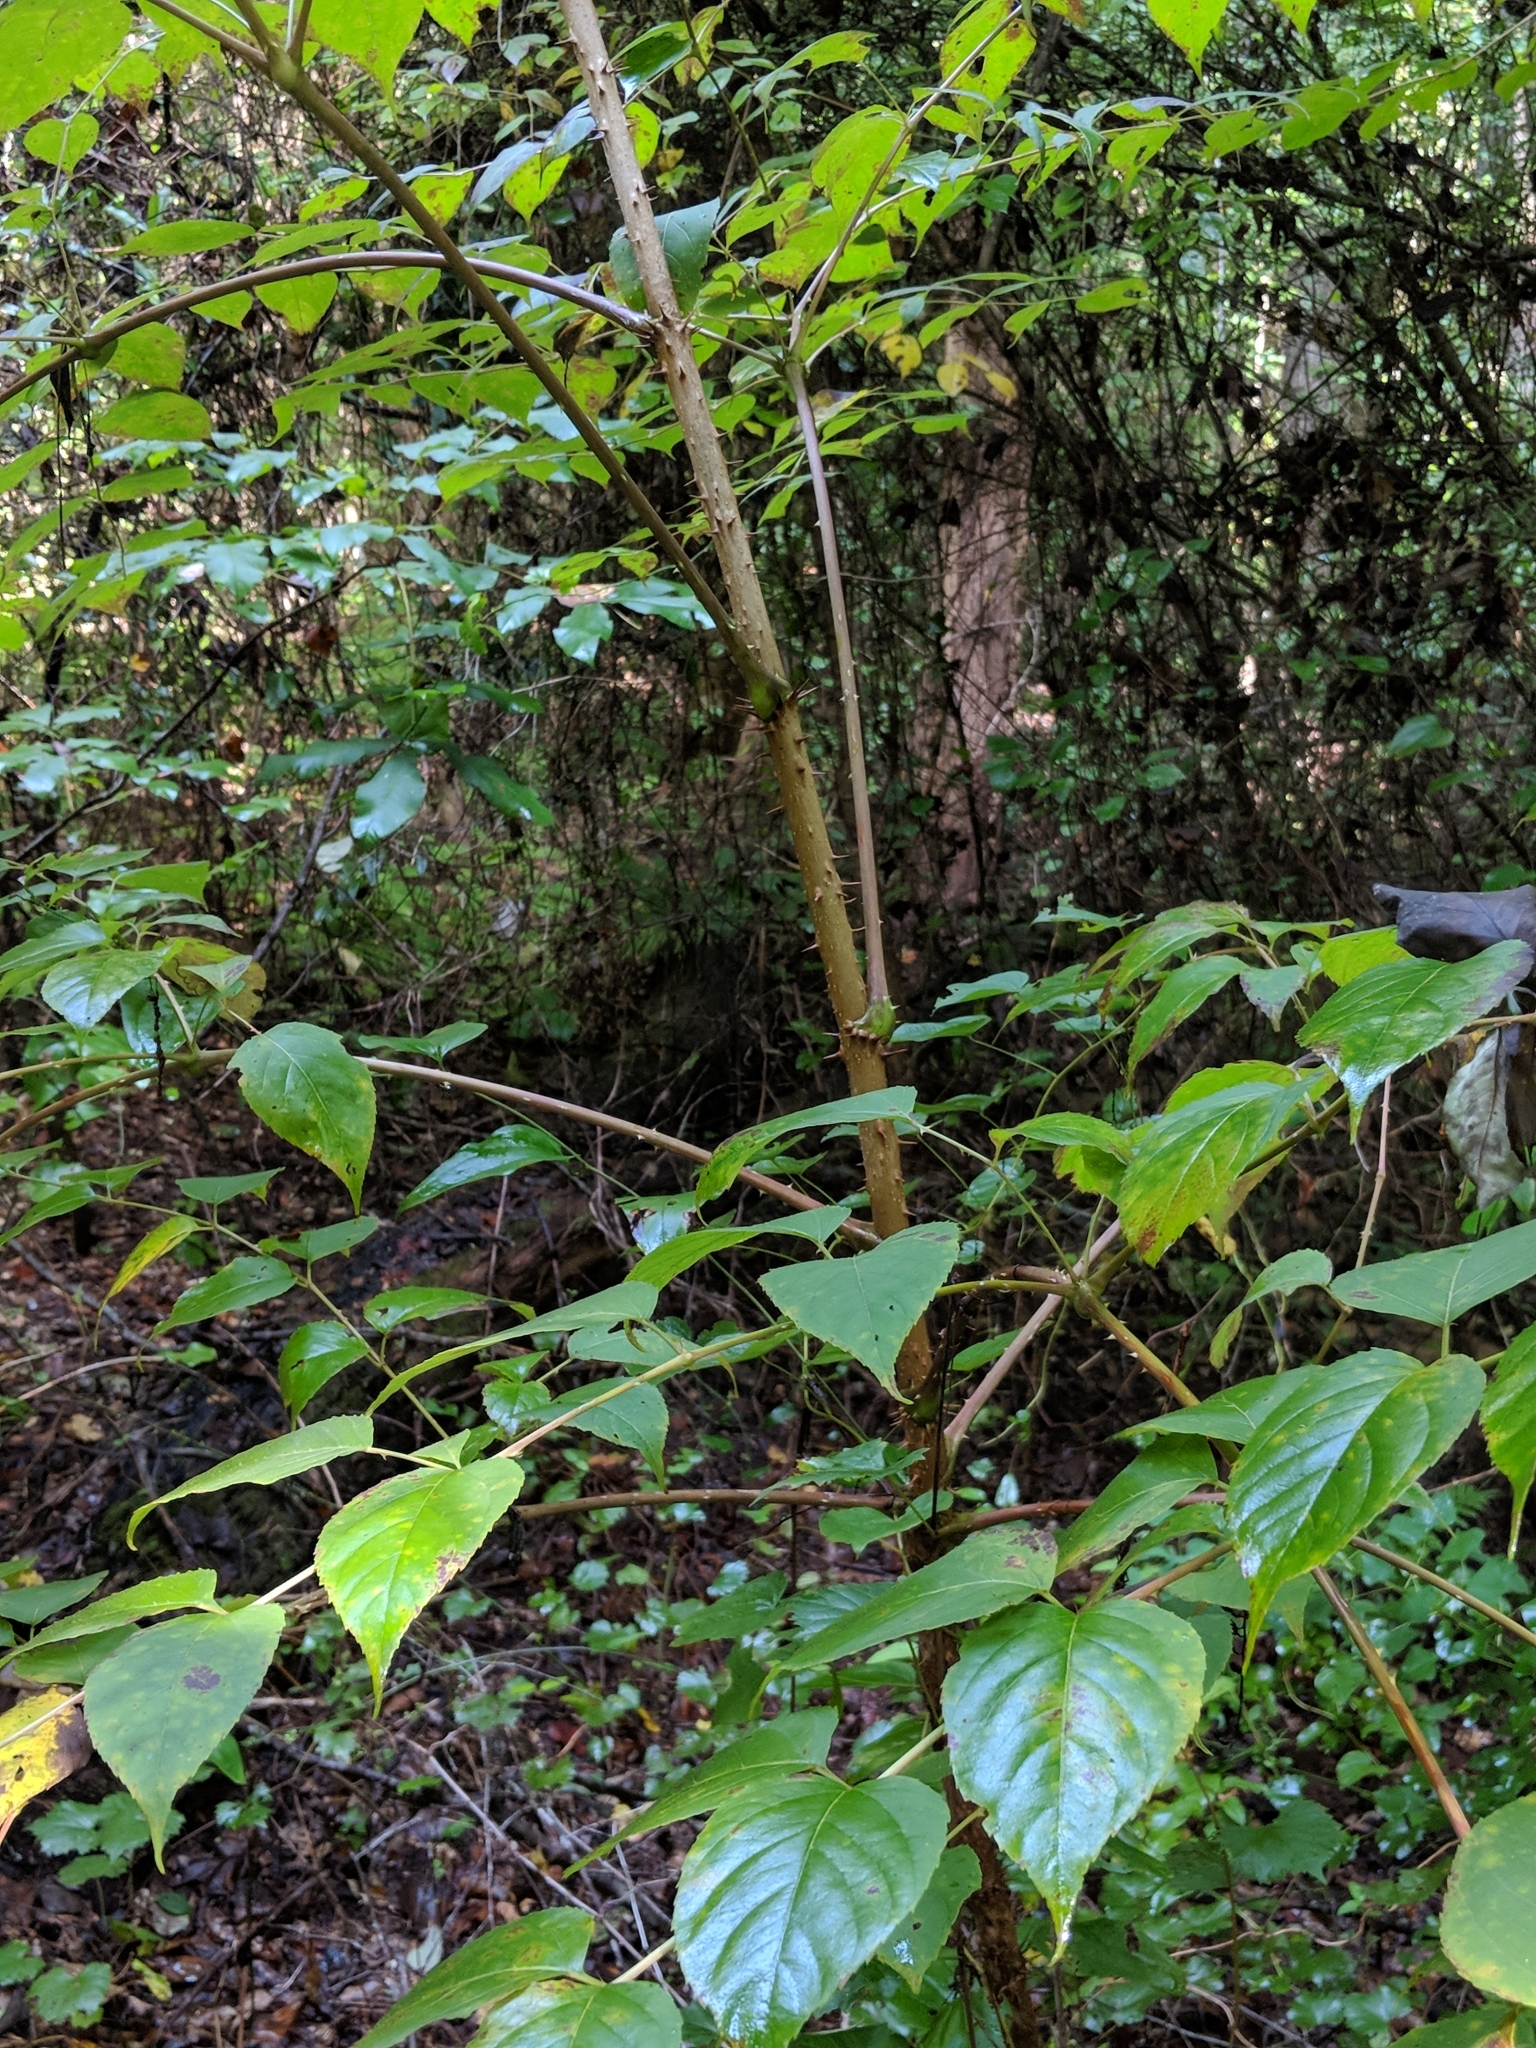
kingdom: Plantae
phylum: Tracheophyta
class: Magnoliopsida
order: Apiales
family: Araliaceae
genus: Aralia
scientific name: Aralia spinosa
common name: Hercules'-club
